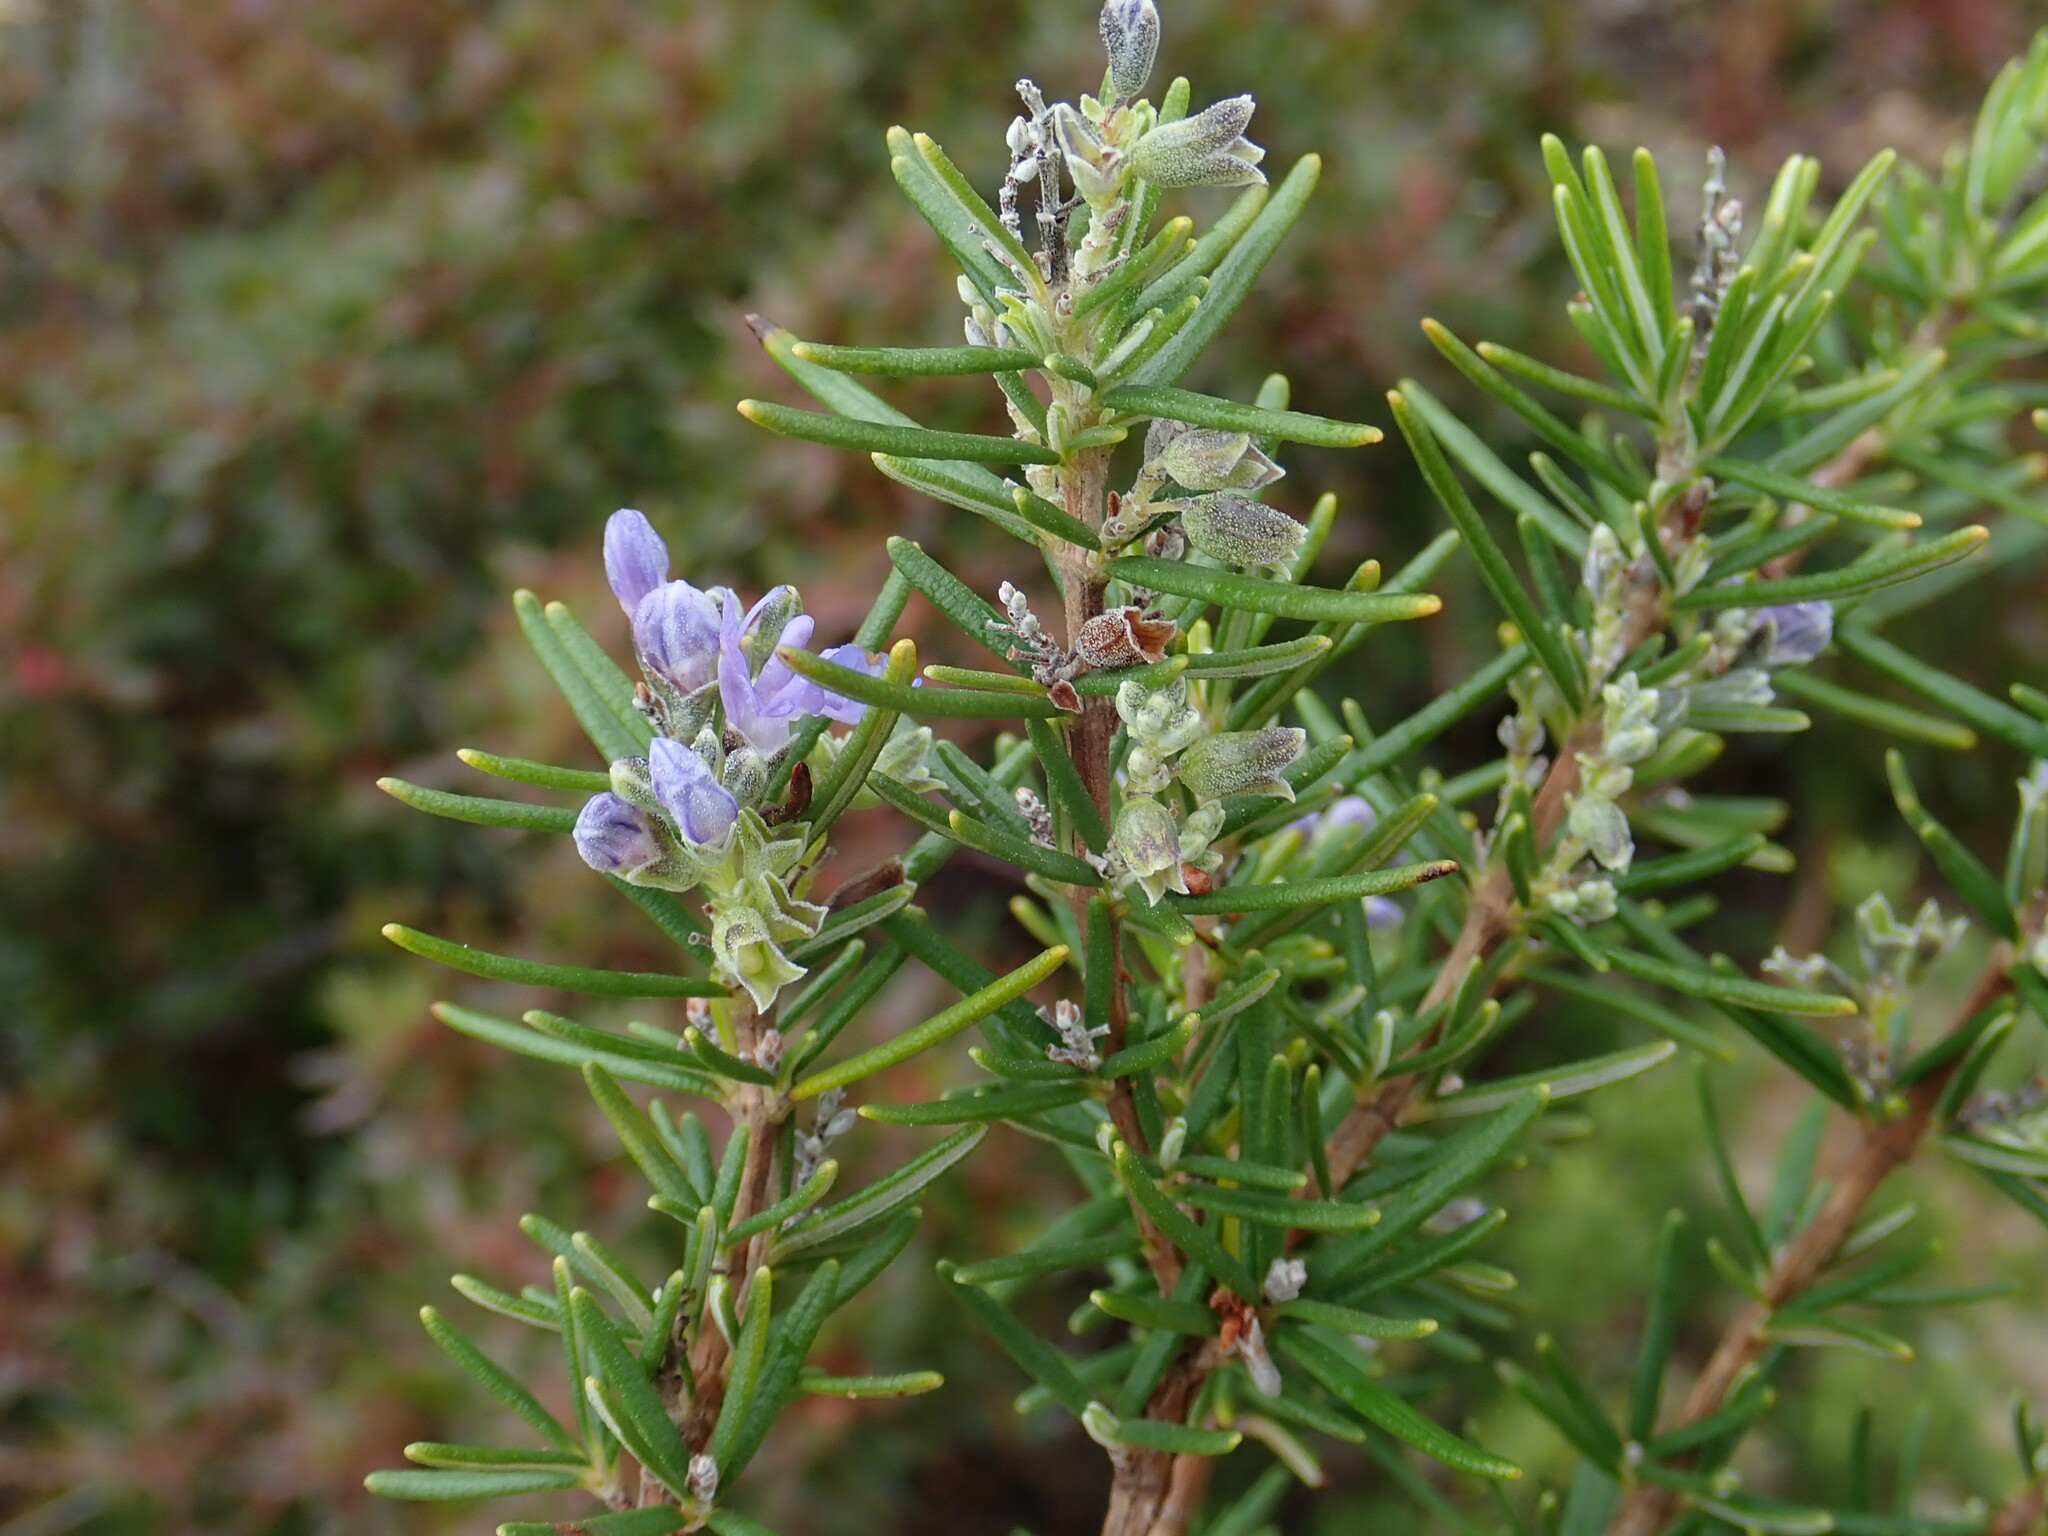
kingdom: Plantae
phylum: Tracheophyta
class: Magnoliopsida
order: Lamiales
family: Lamiaceae
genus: Salvia
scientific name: Salvia rosmarinus
